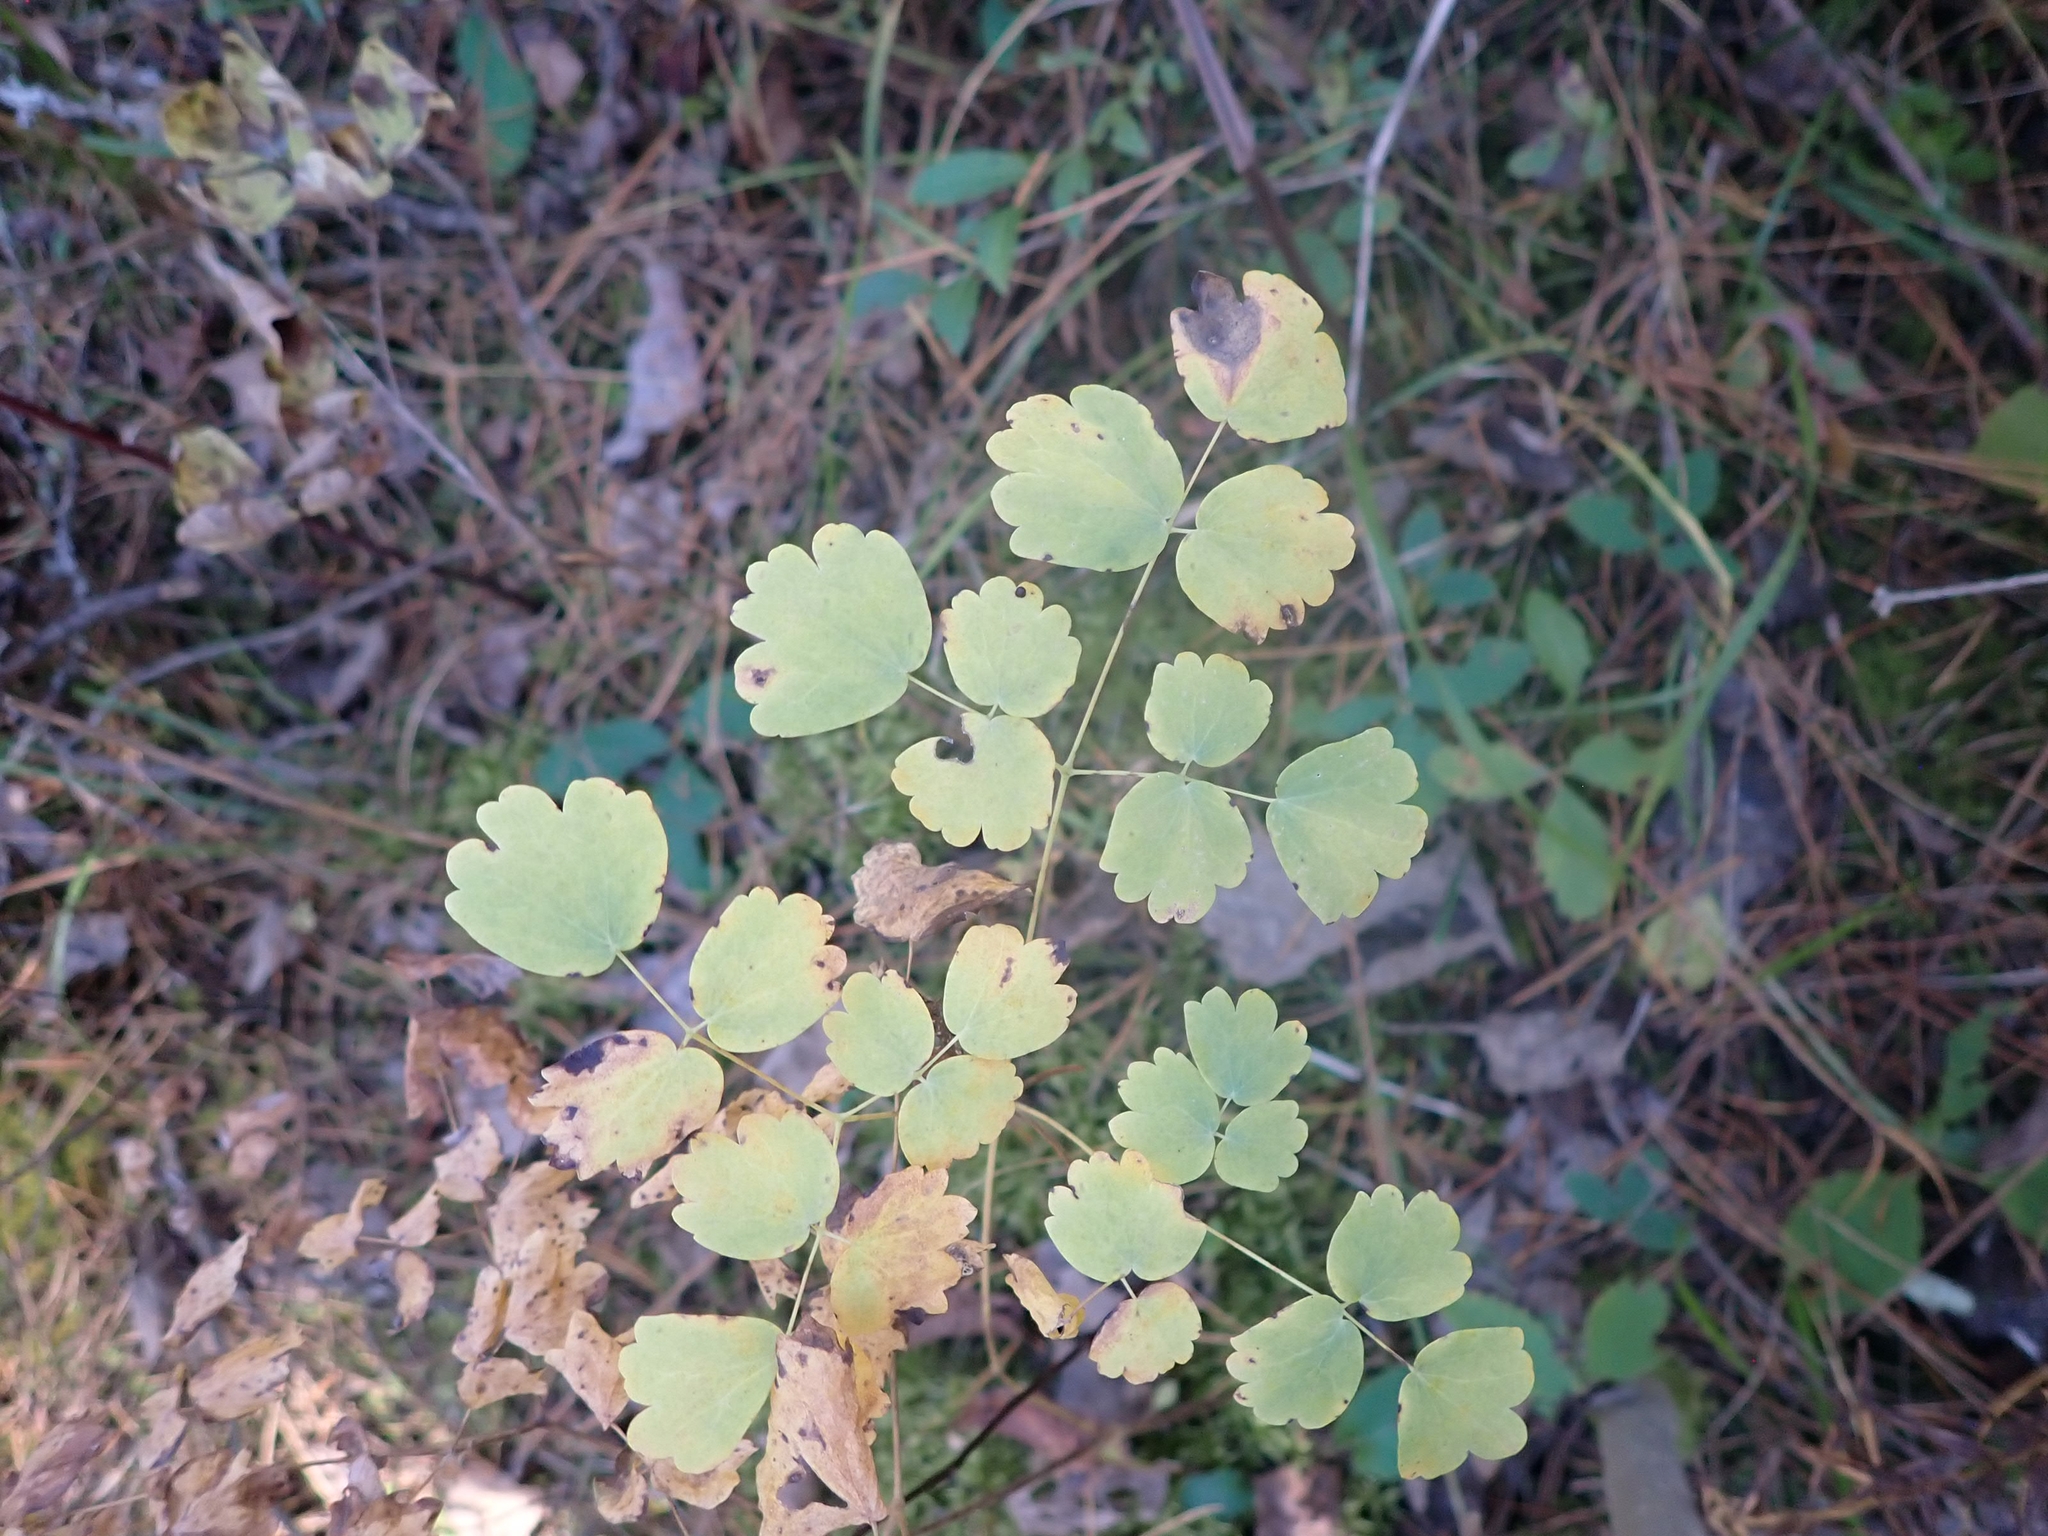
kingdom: Plantae
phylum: Tracheophyta
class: Magnoliopsida
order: Ranunculales
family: Ranunculaceae
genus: Thalictrum
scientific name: Thalictrum venulosum
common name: Early meadow-rue
